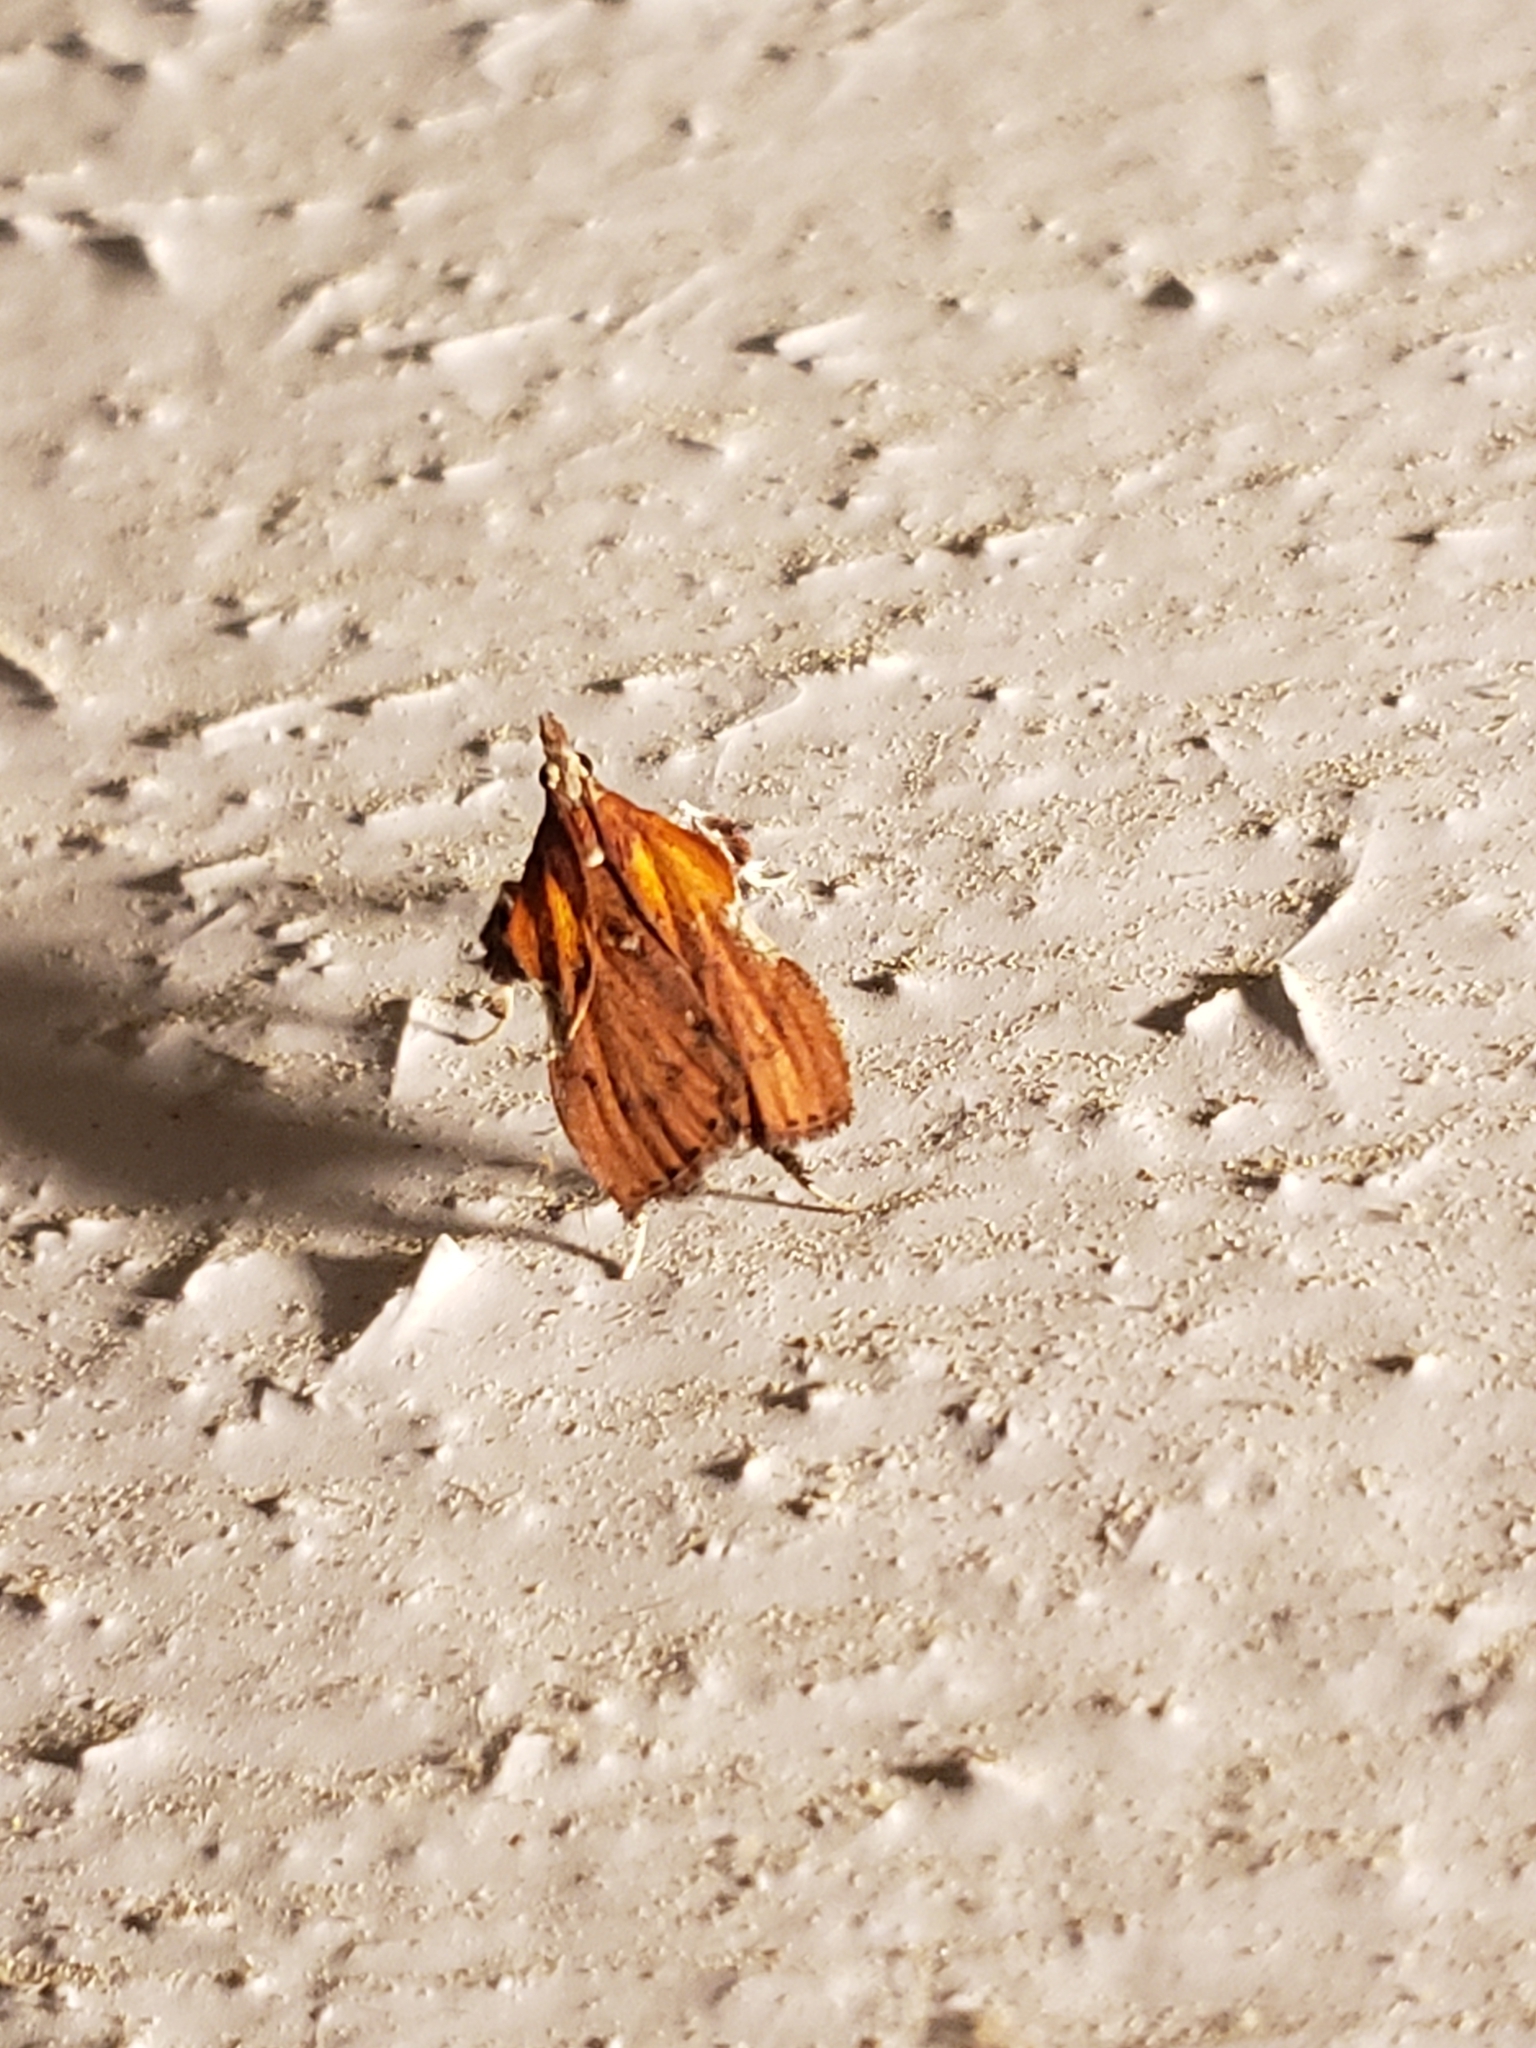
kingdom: Animalia
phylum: Arthropoda
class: Insecta
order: Lepidoptera
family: Pyralidae
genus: Galasa
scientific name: Galasa nigrinodis
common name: Boxwood leaftier moth
